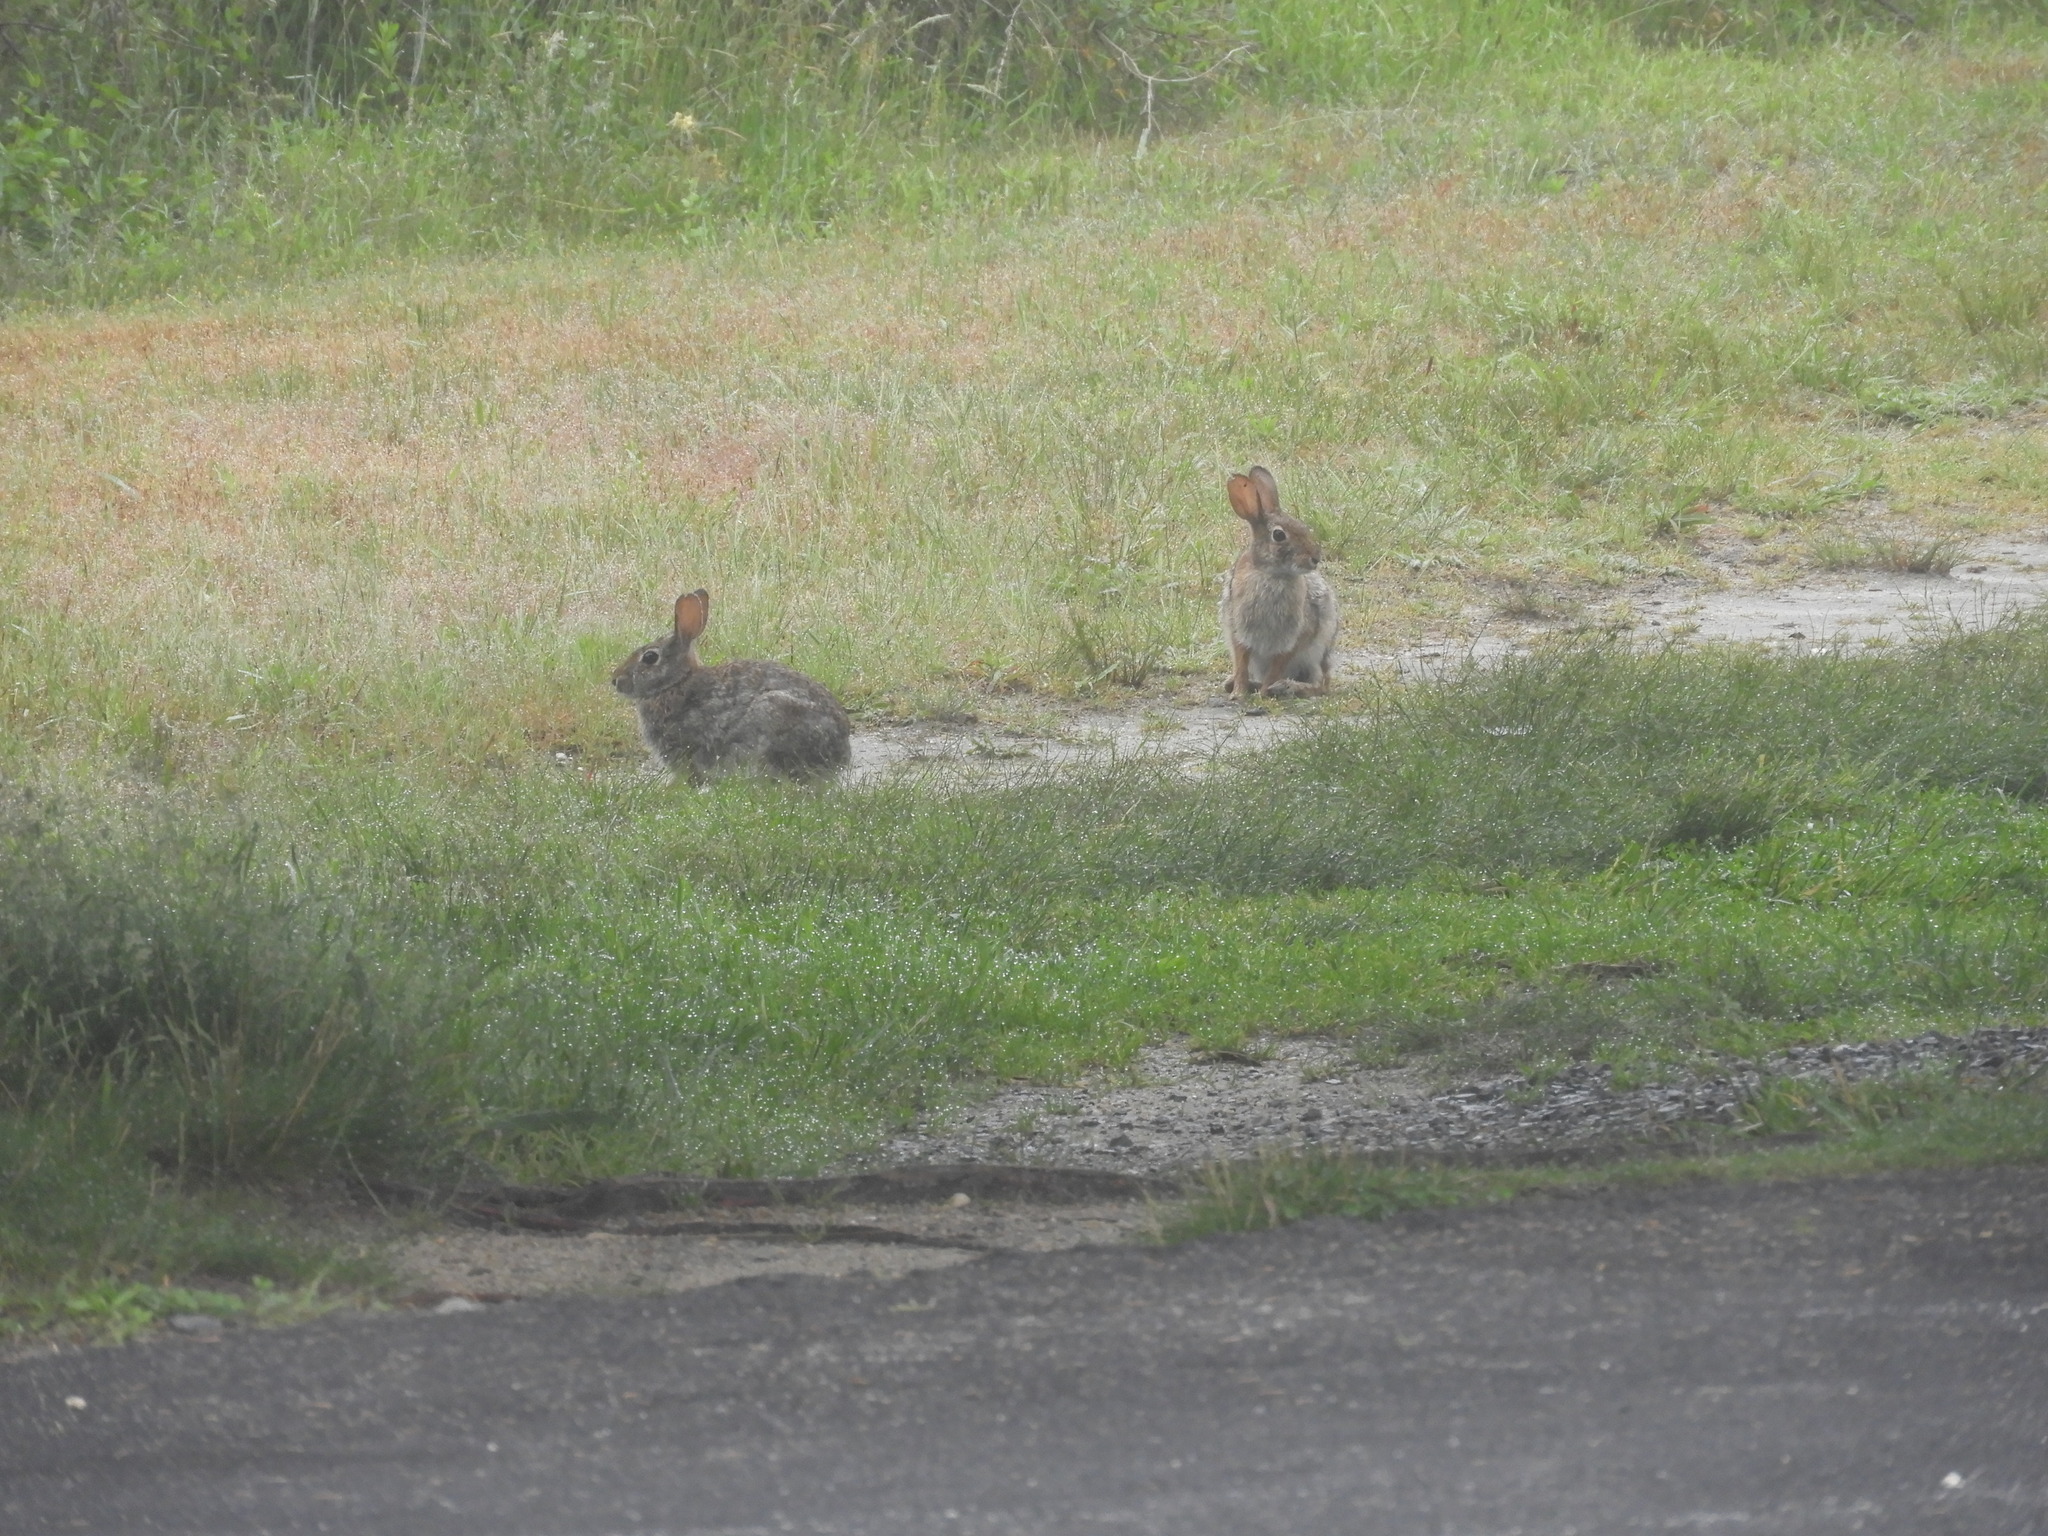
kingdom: Animalia
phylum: Chordata
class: Mammalia
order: Lagomorpha
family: Leporidae
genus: Sylvilagus
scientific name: Sylvilagus floridanus
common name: Eastern cottontail
